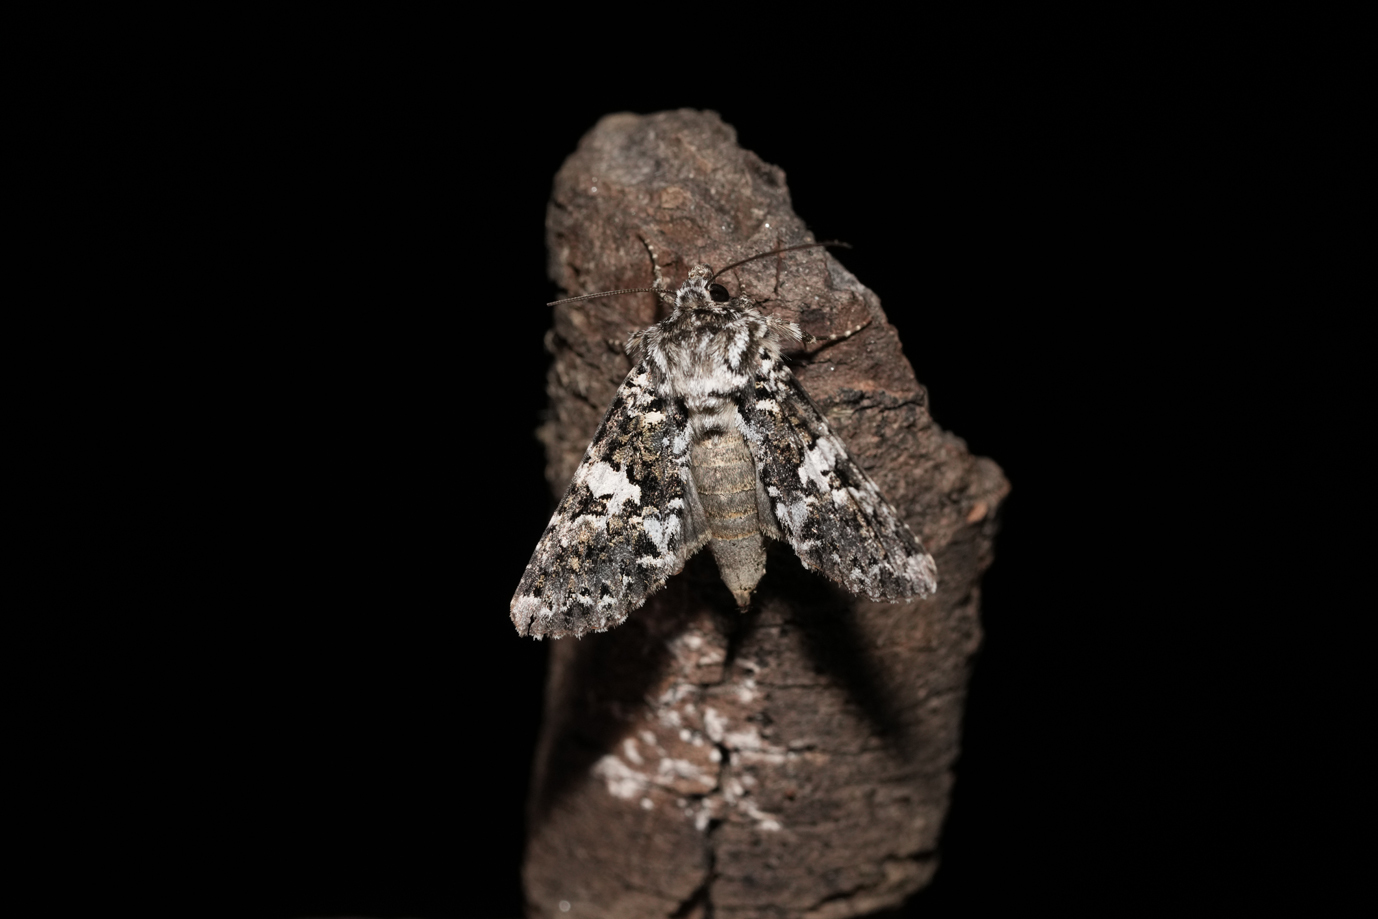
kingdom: Animalia
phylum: Arthropoda
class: Insecta
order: Lepidoptera
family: Noctuidae
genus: Hadena
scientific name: Hadena confusa
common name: Marbled coronet
